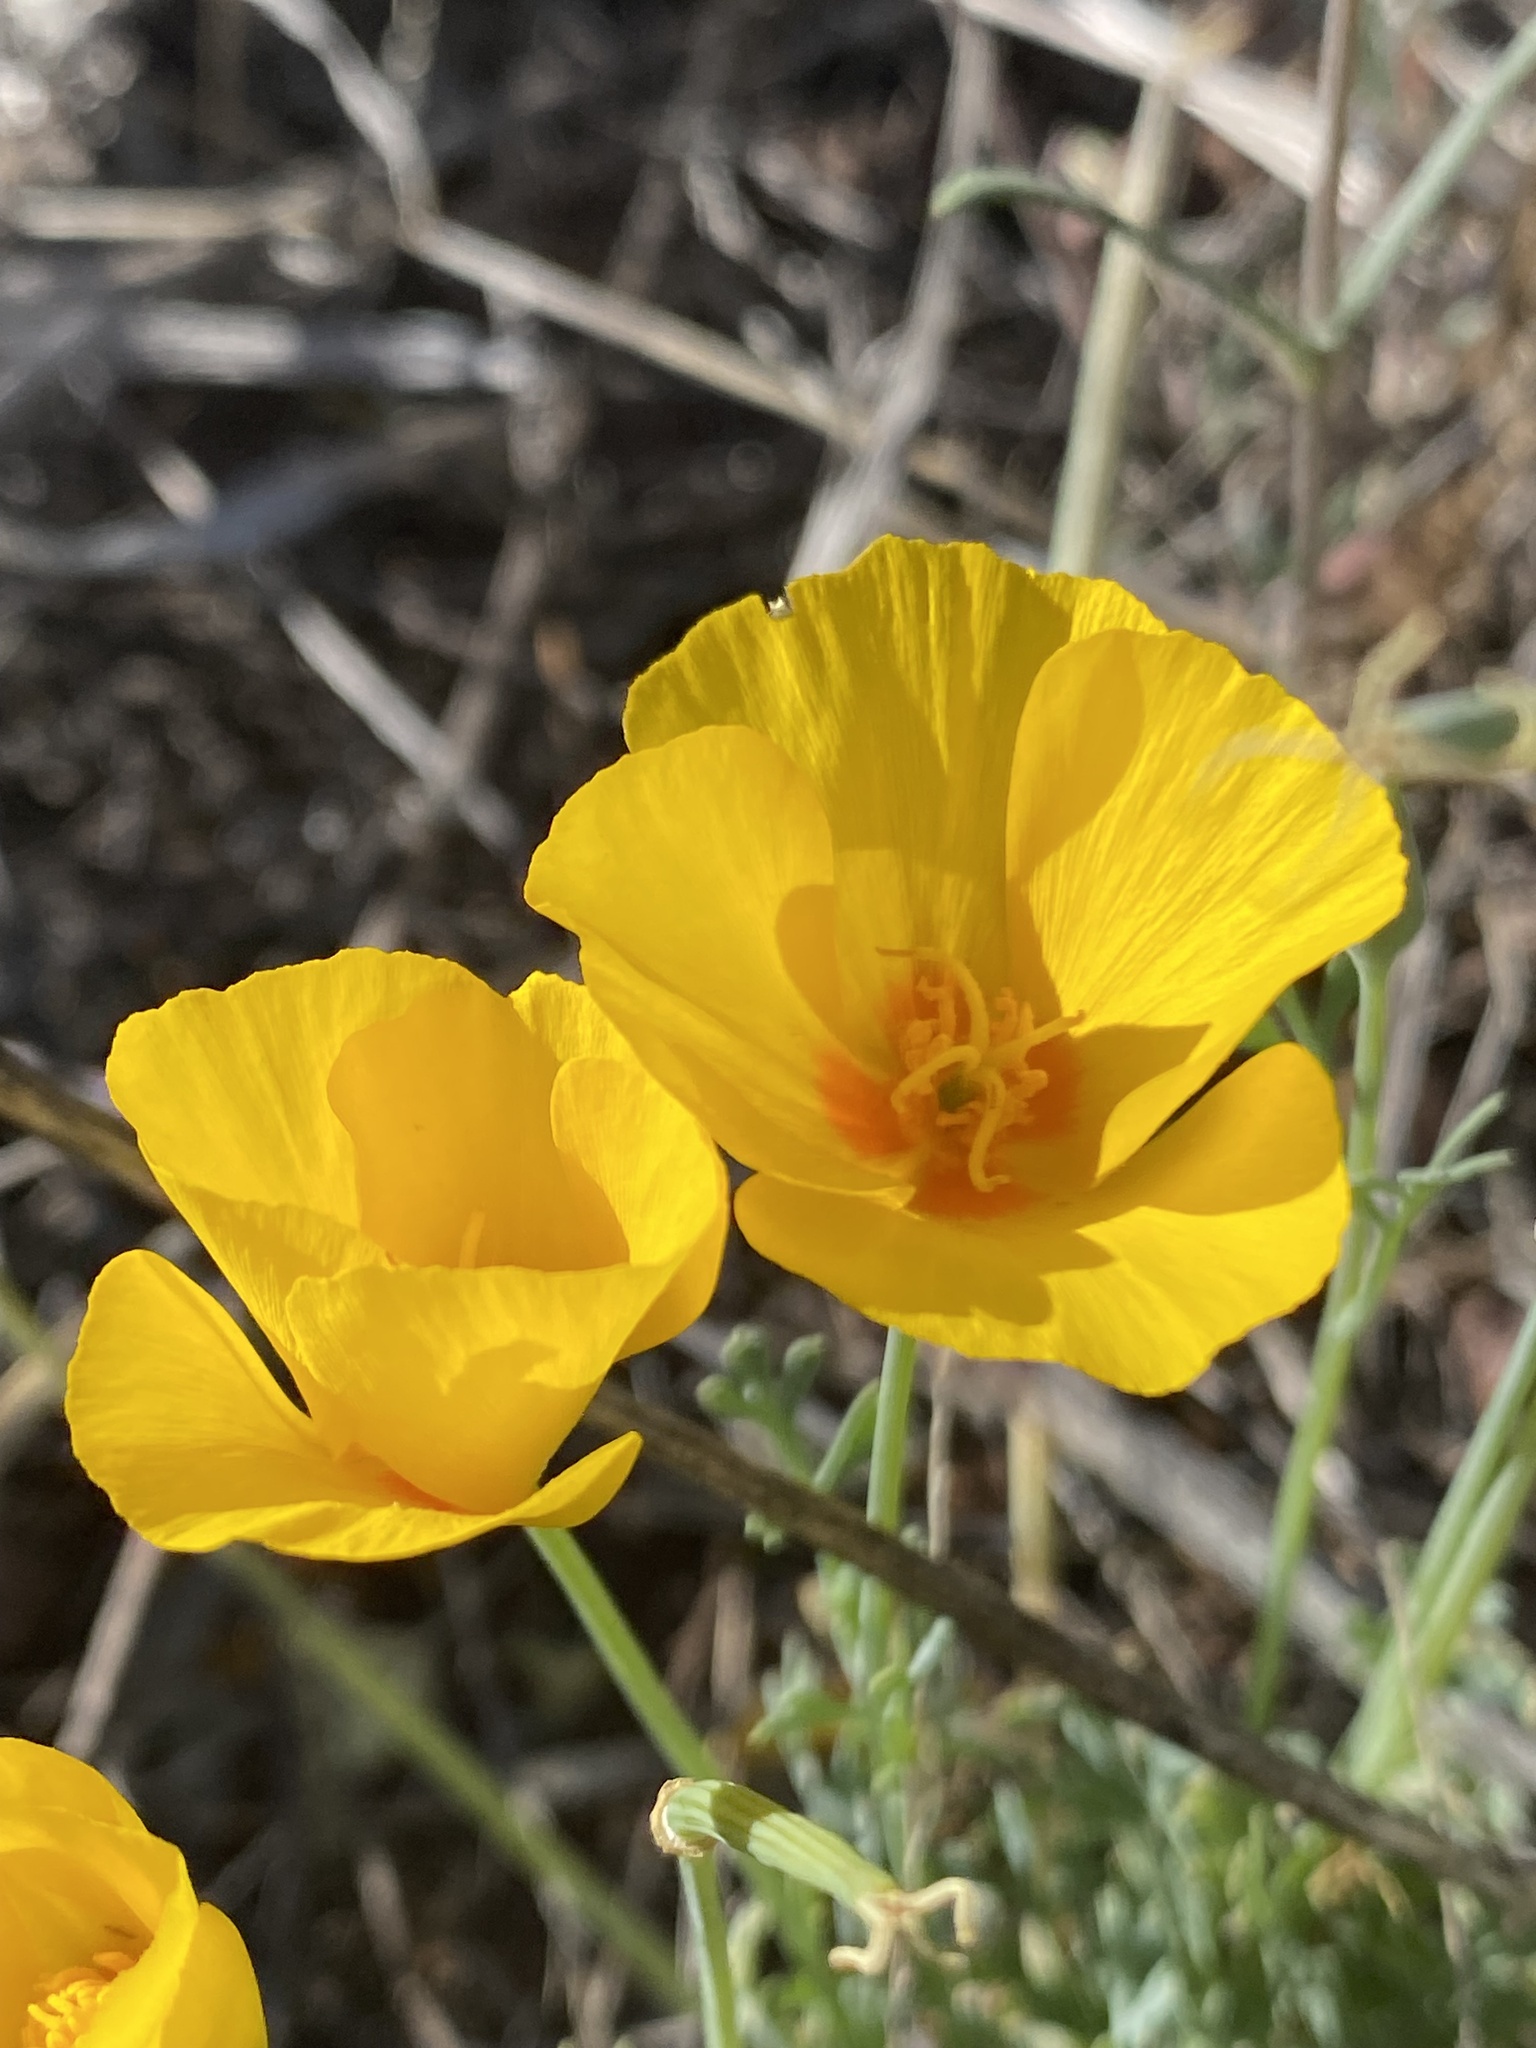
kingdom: Plantae
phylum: Tracheophyta
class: Magnoliopsida
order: Ranunculales
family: Papaveraceae
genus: Eschscholzia
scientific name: Eschscholzia californica
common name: California poppy
